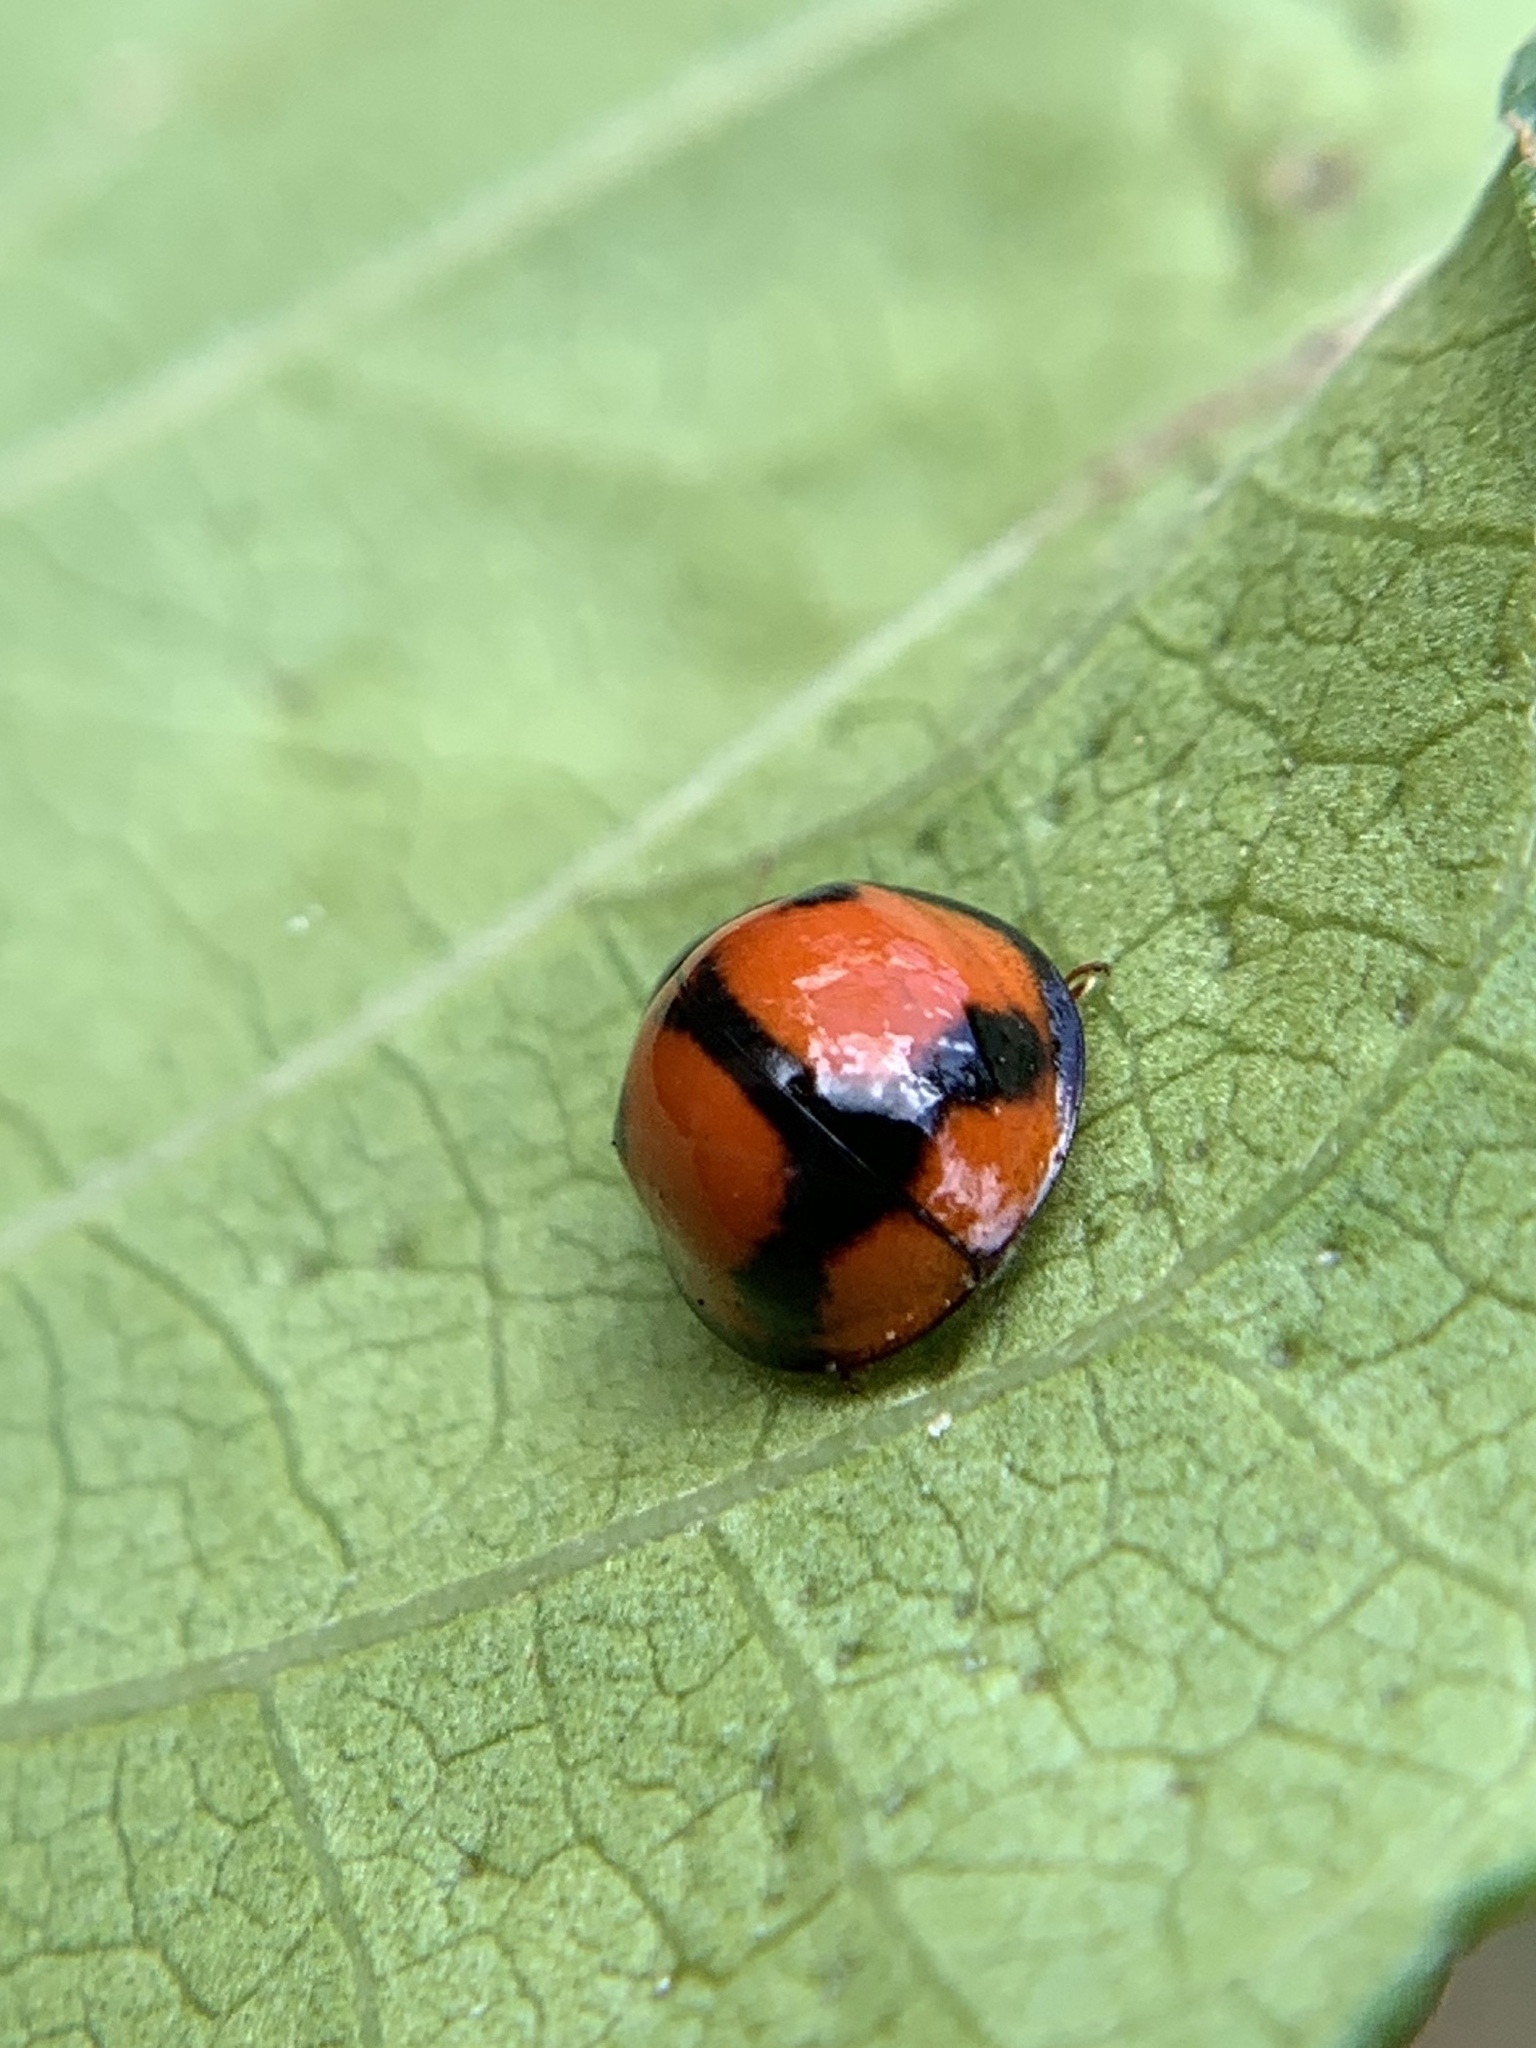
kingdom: Animalia
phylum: Arthropoda
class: Insecta
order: Coleoptera
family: Coccinellidae
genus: Coelophora
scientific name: Coelophora biplagiata
